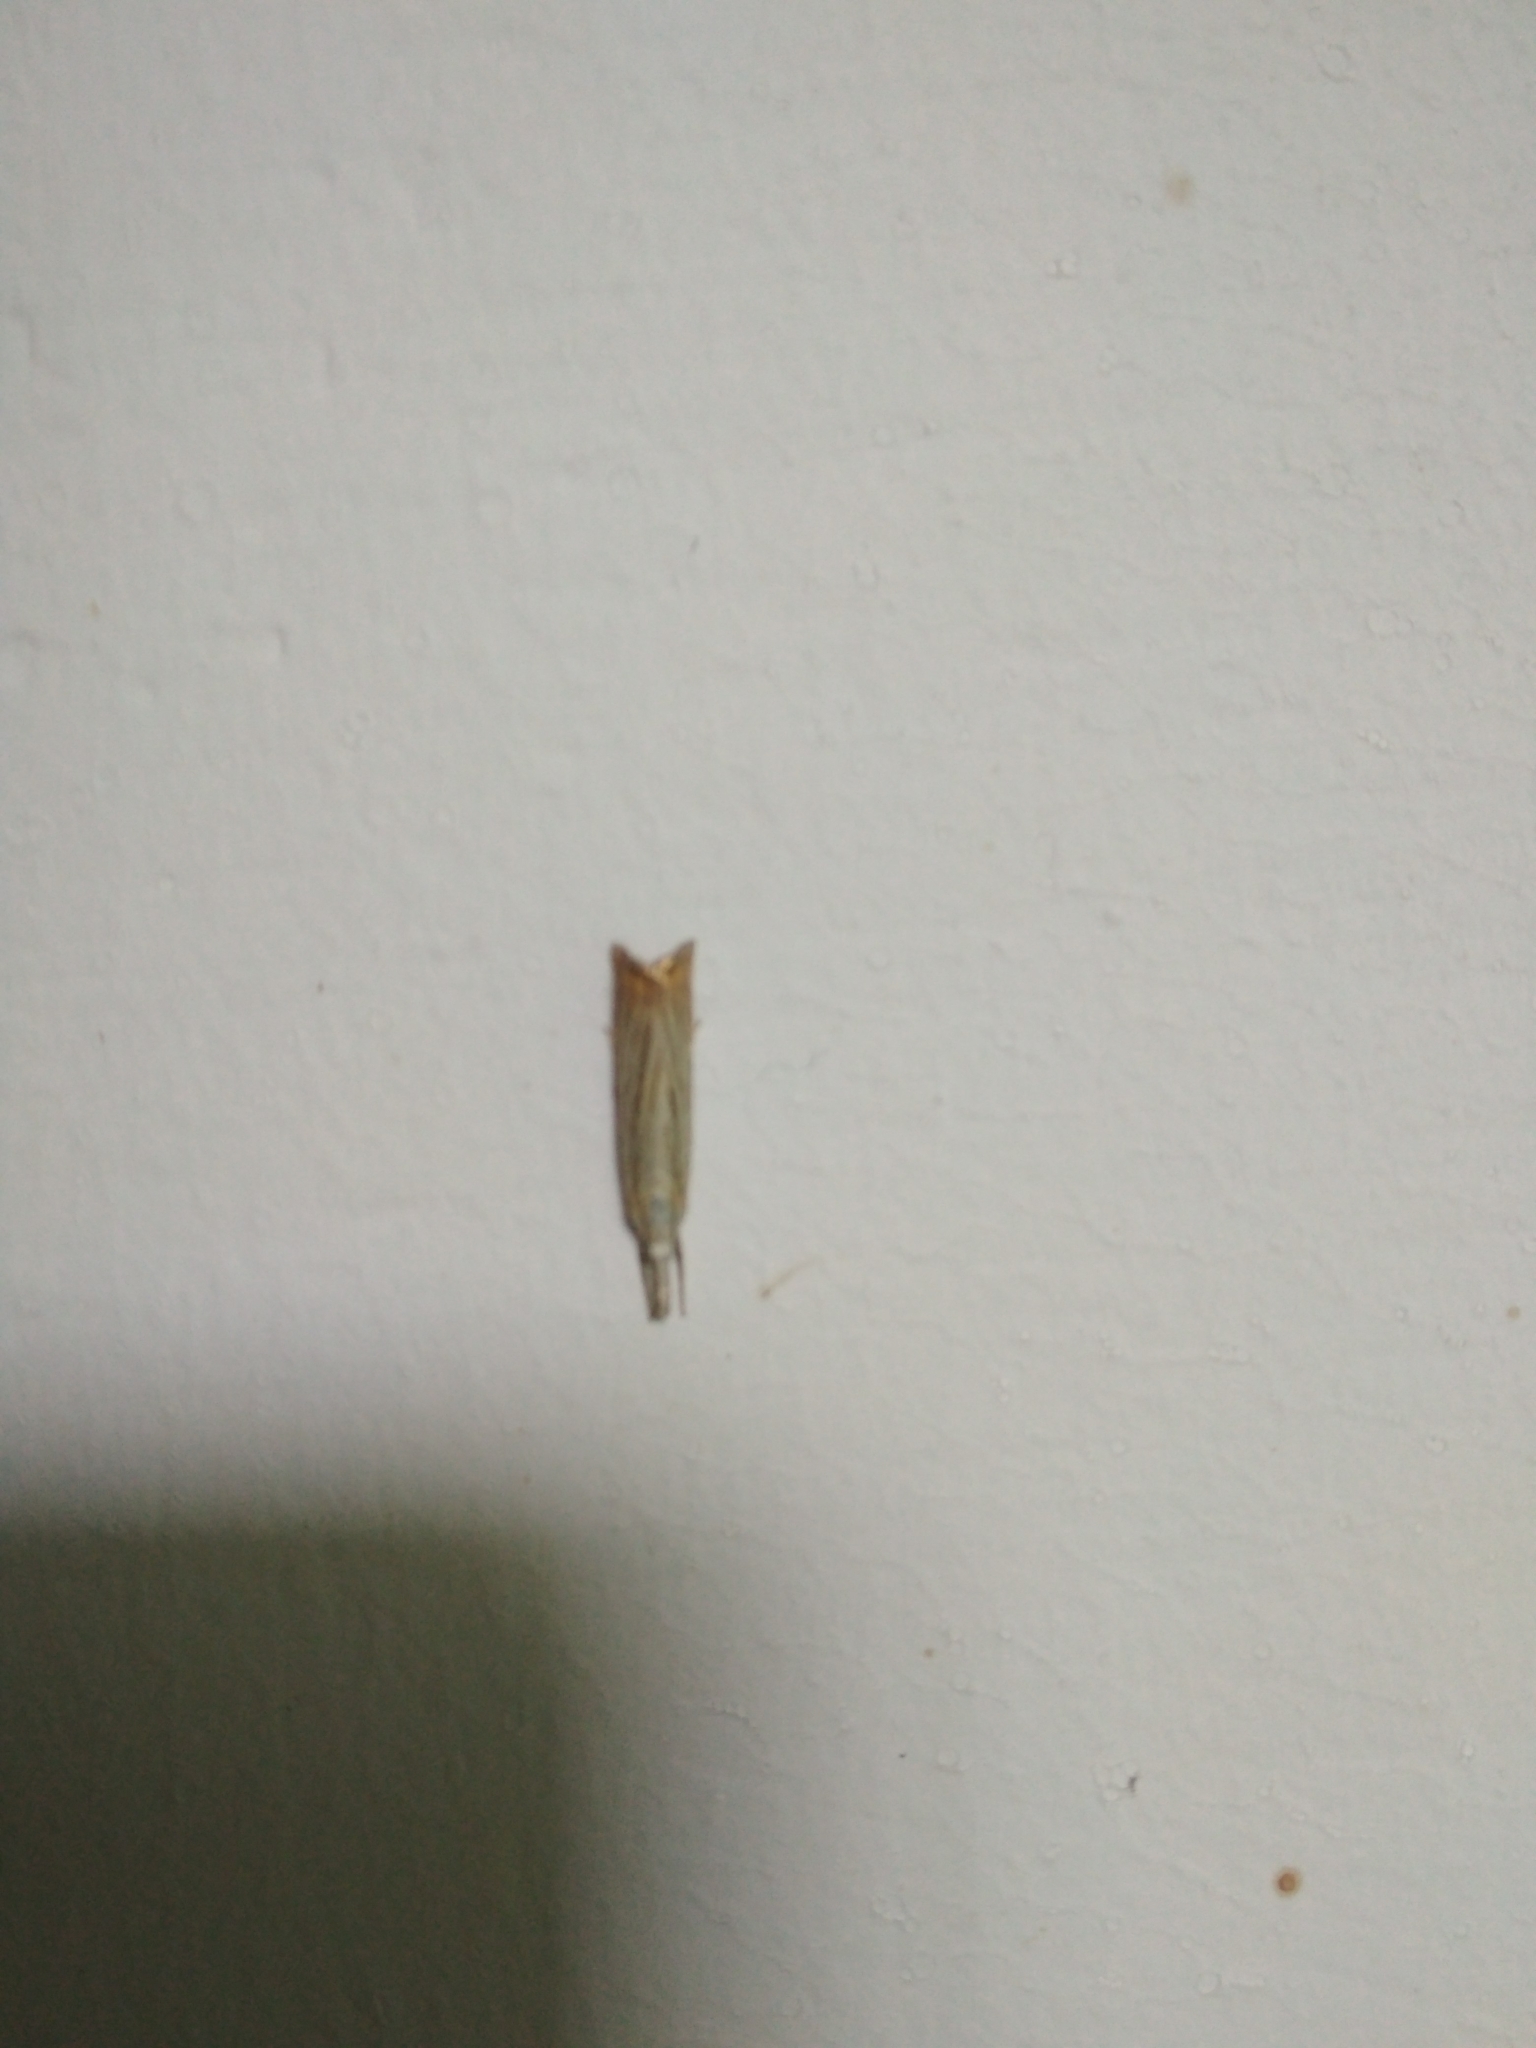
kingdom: Animalia
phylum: Arthropoda
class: Insecta
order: Lepidoptera
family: Crambidae
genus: Chrysoteuchia
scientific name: Chrysoteuchia culmella
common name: Garden grass-veneer
